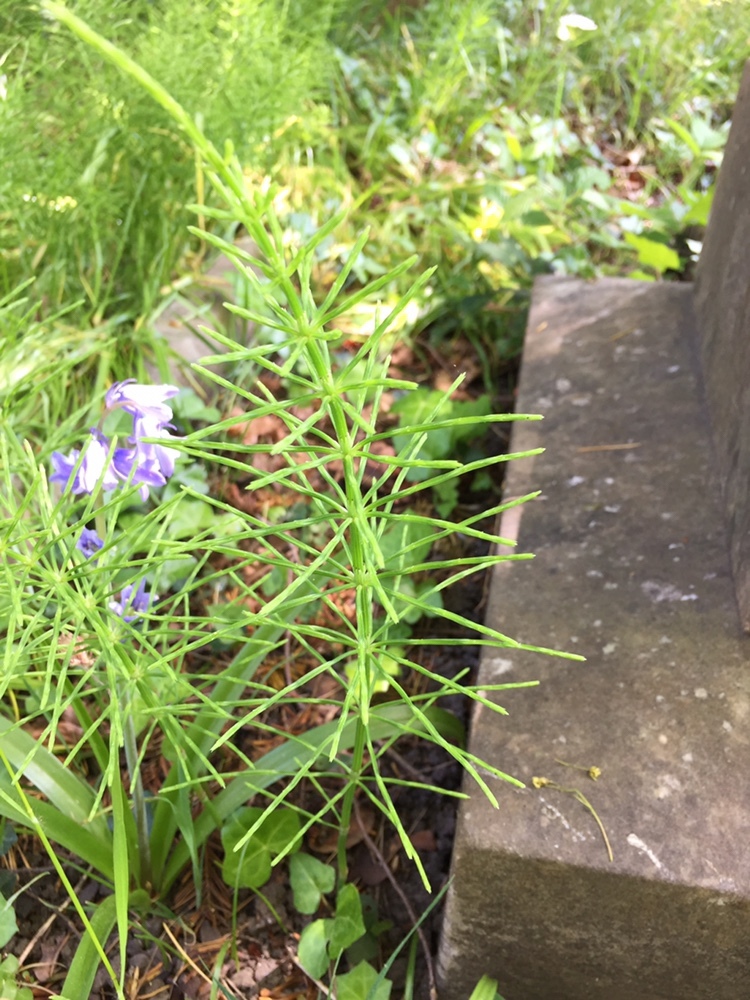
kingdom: Plantae
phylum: Tracheophyta
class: Polypodiopsida
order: Equisetales
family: Equisetaceae
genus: Equisetum
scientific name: Equisetum arvense
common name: Field horsetail
